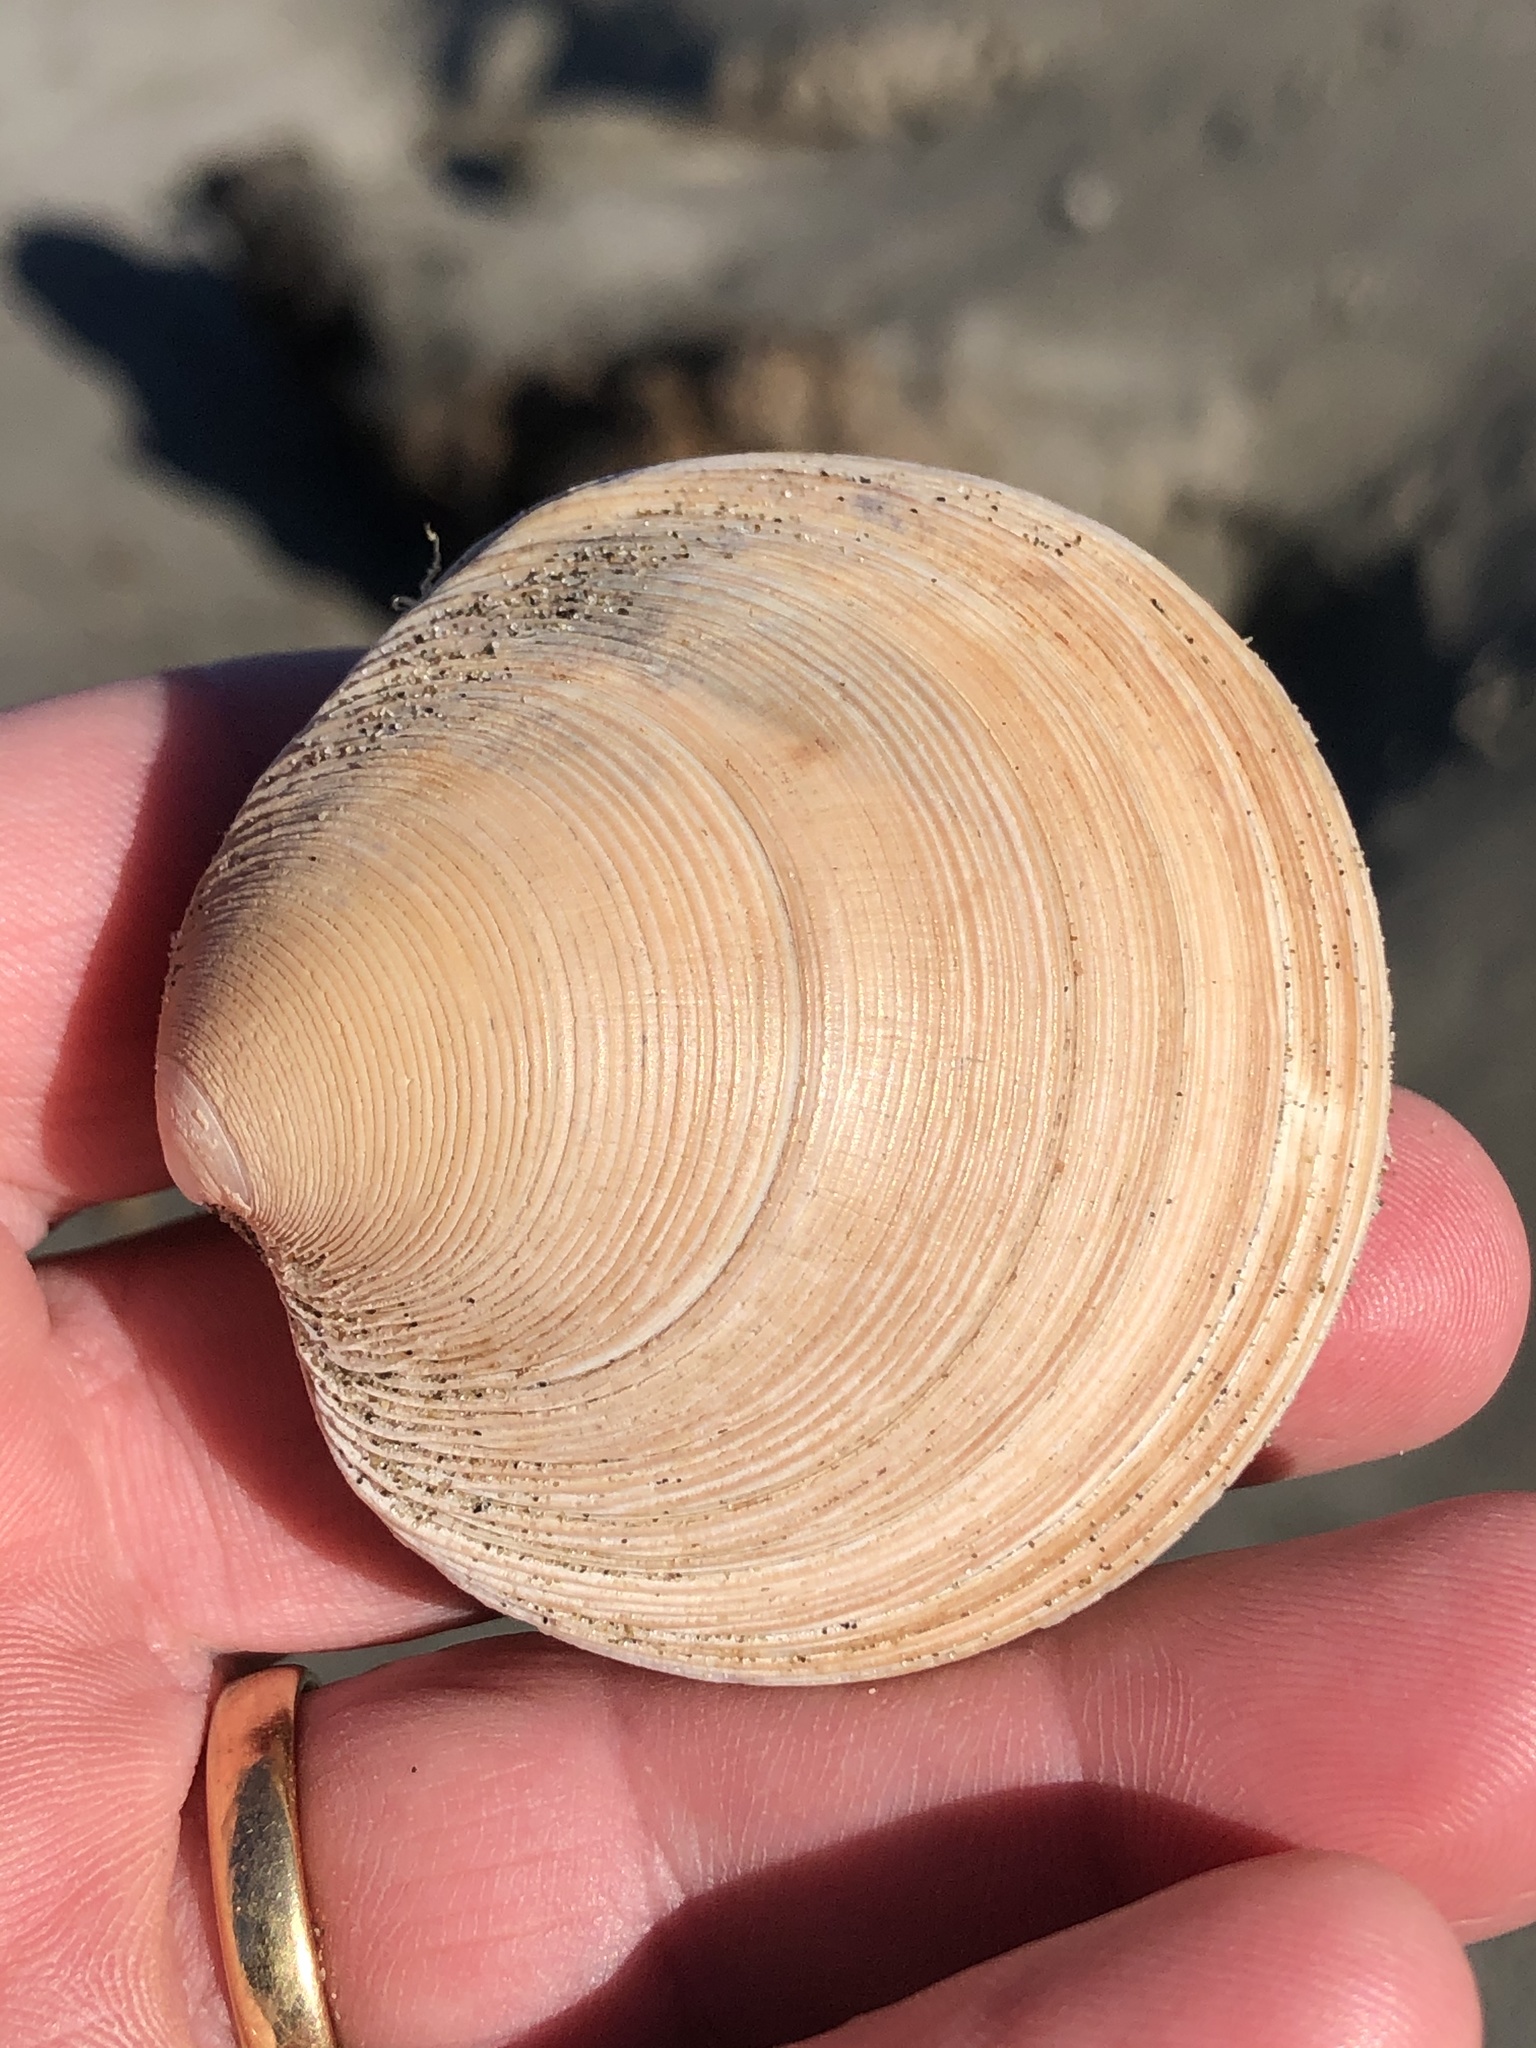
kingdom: Animalia
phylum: Mollusca
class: Bivalvia
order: Venerida
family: Veneridae
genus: Dosinia
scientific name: Dosinia anus
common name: Old-woman dosinia
